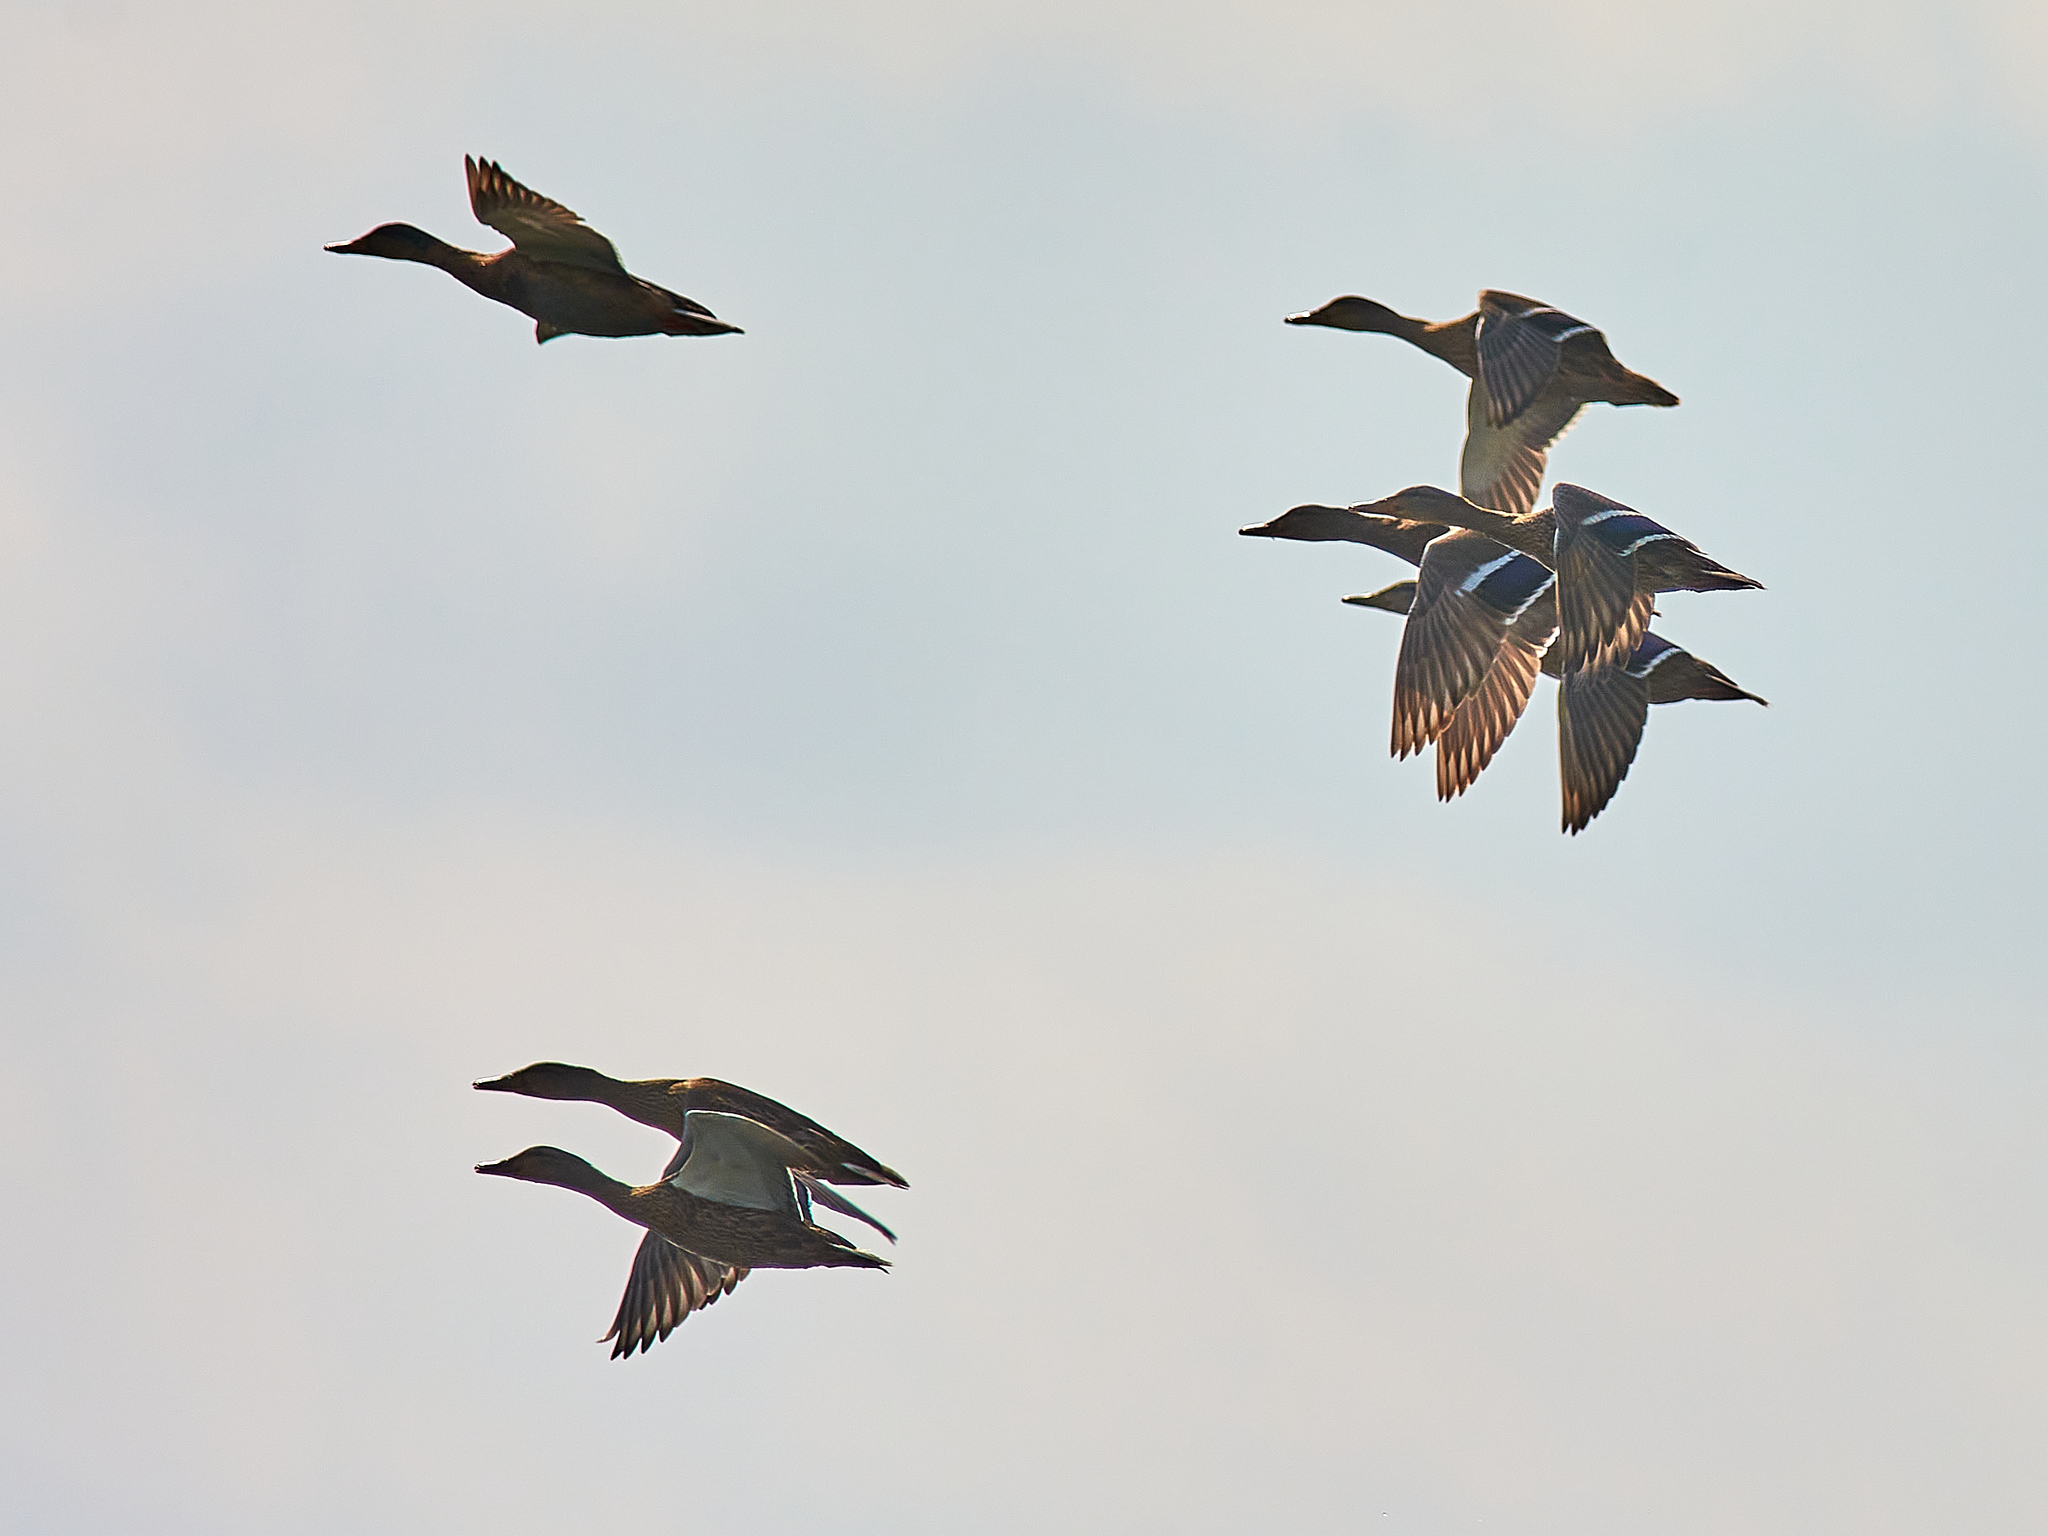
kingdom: Animalia
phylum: Chordata
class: Aves
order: Anseriformes
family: Anatidae
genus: Anas
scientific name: Anas platyrhynchos
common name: Mallard
